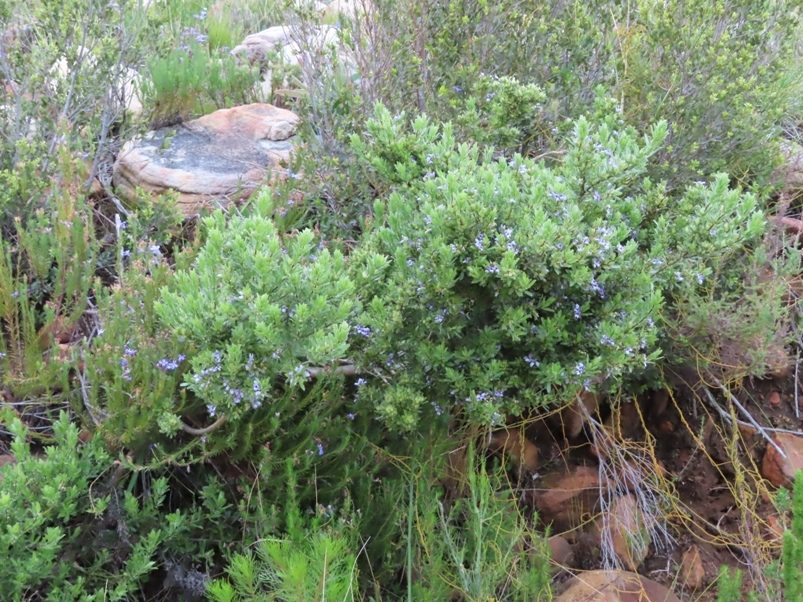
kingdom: Plantae
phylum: Tracheophyta
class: Magnoliopsida
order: Fabales
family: Fabaceae
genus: Psoralea
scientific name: Psoralea obliqua
